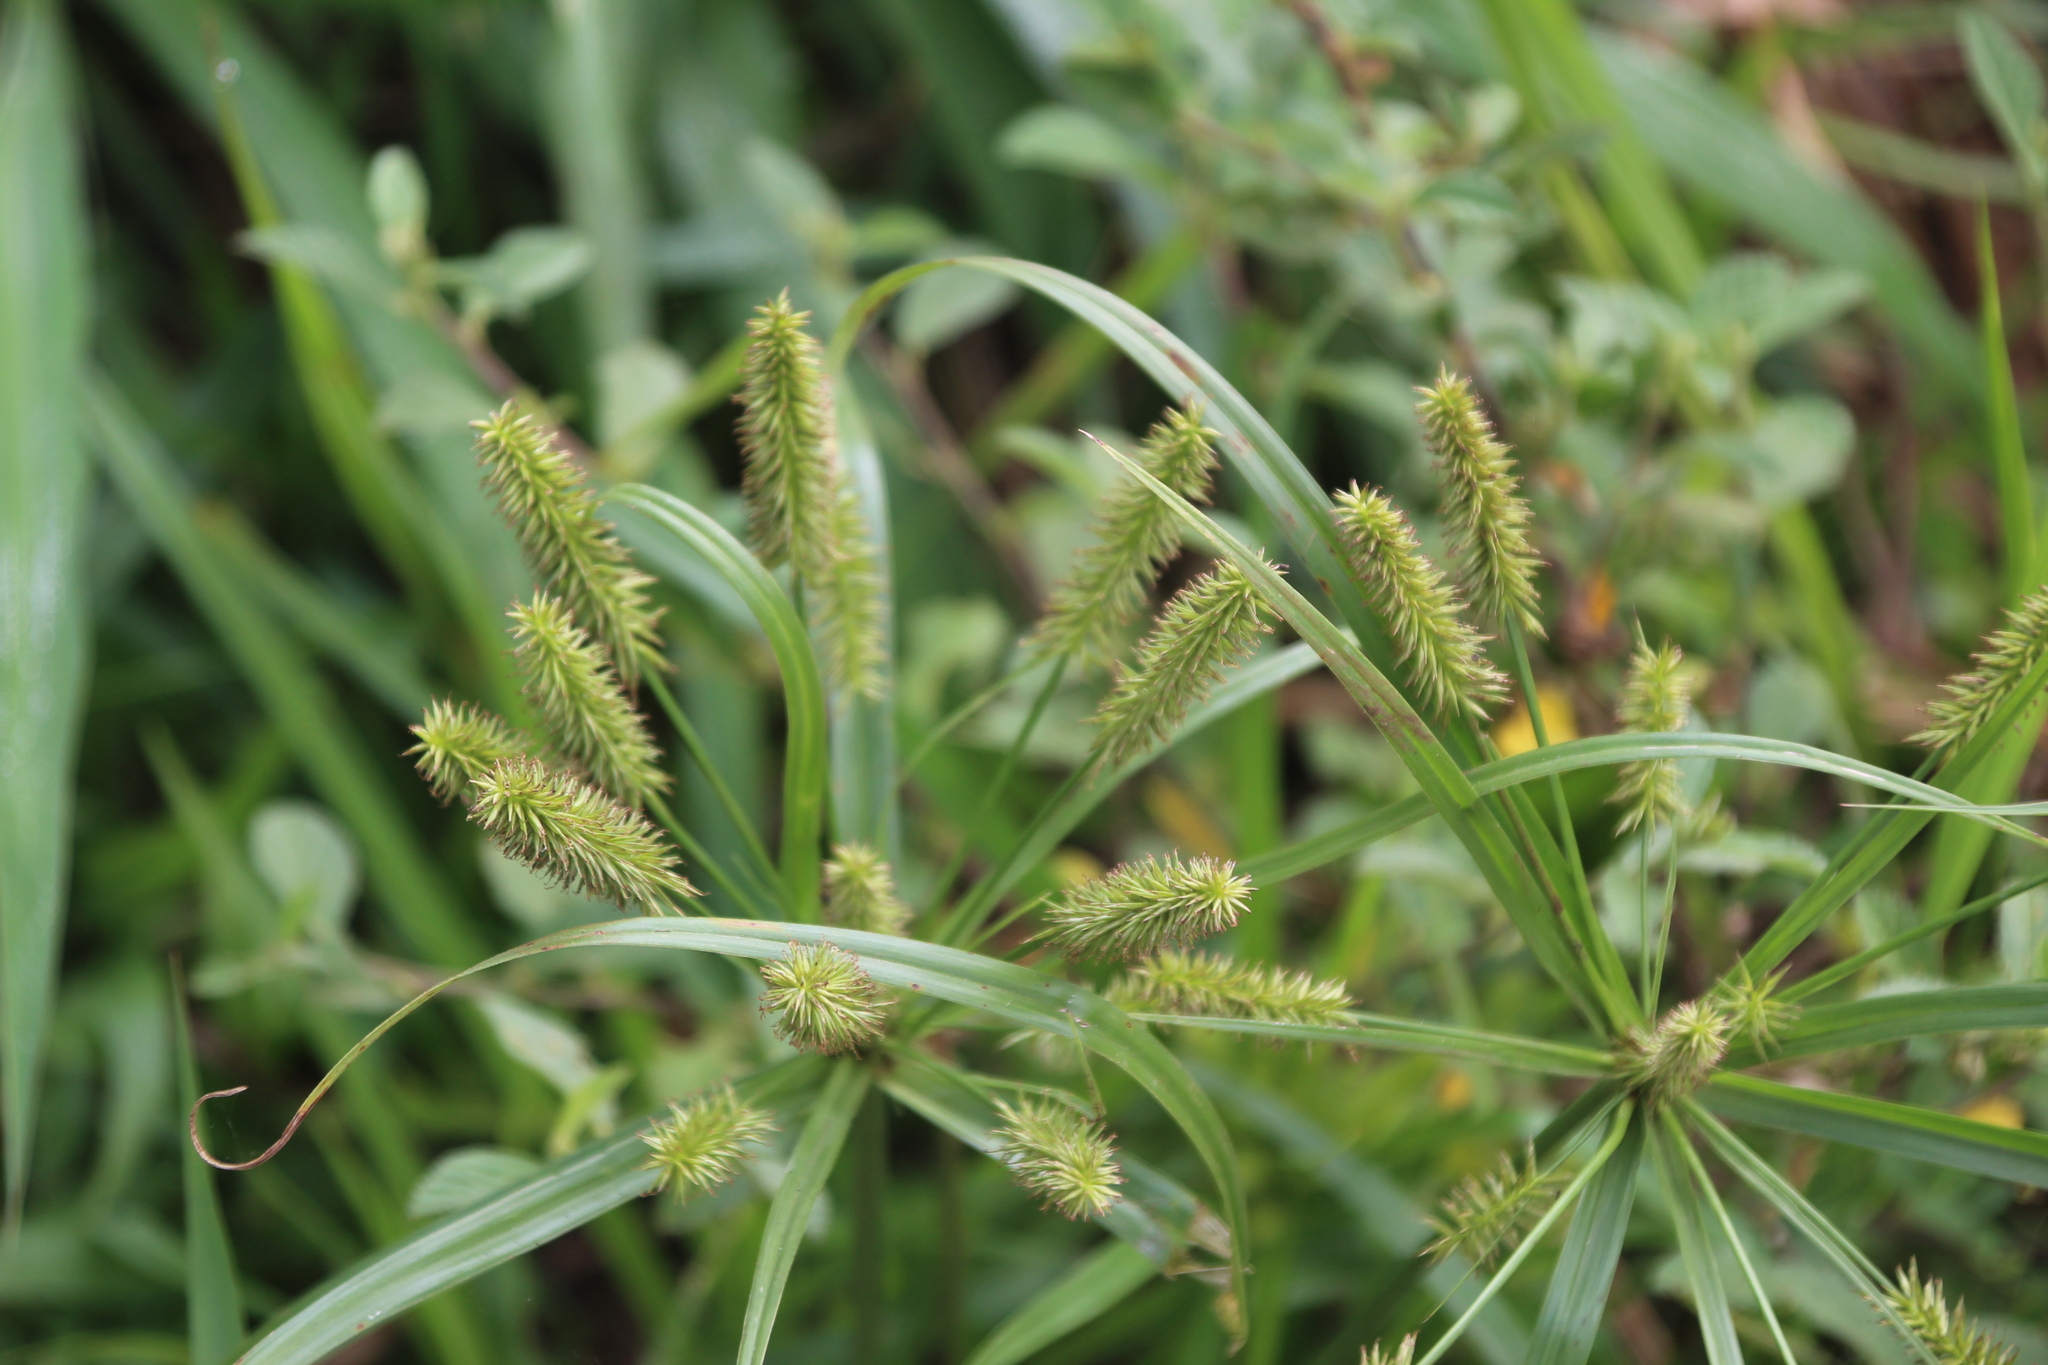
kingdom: Plantae
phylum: Tracheophyta
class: Liliopsida
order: Poales
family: Cyperaceae
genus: Cyperus
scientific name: Cyperus cyperoides
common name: Pacific island flat sedge
